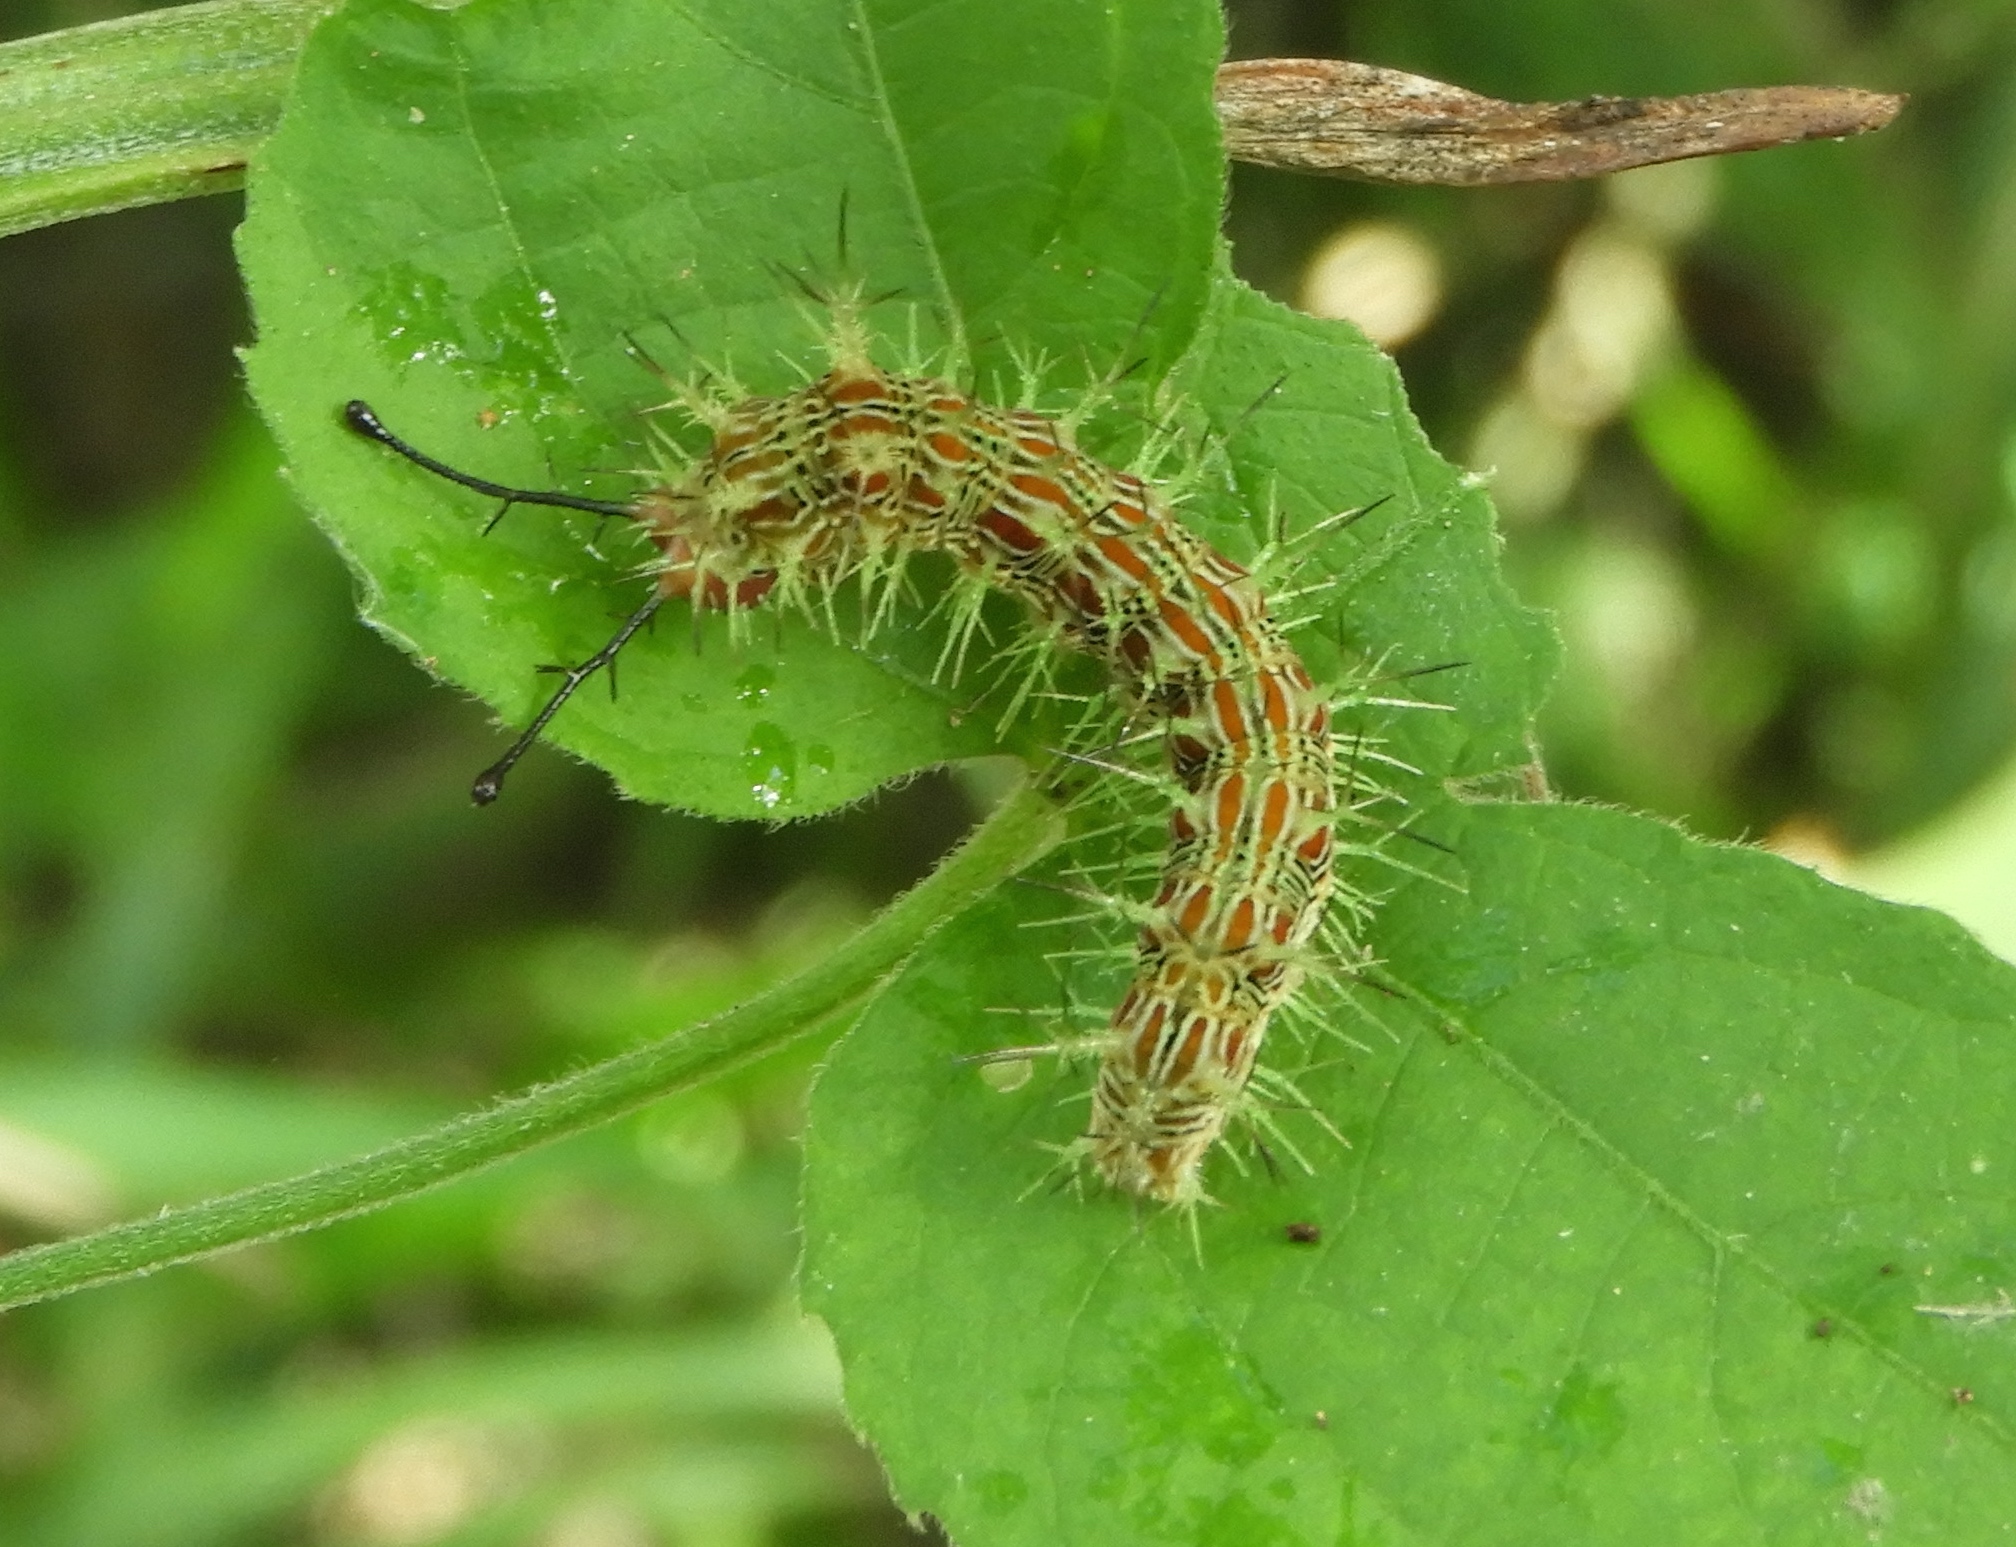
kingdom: Animalia
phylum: Arthropoda
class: Insecta
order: Lepidoptera
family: Nymphalidae
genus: Hamadryas
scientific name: Hamadryas februa
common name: Gray cracker
